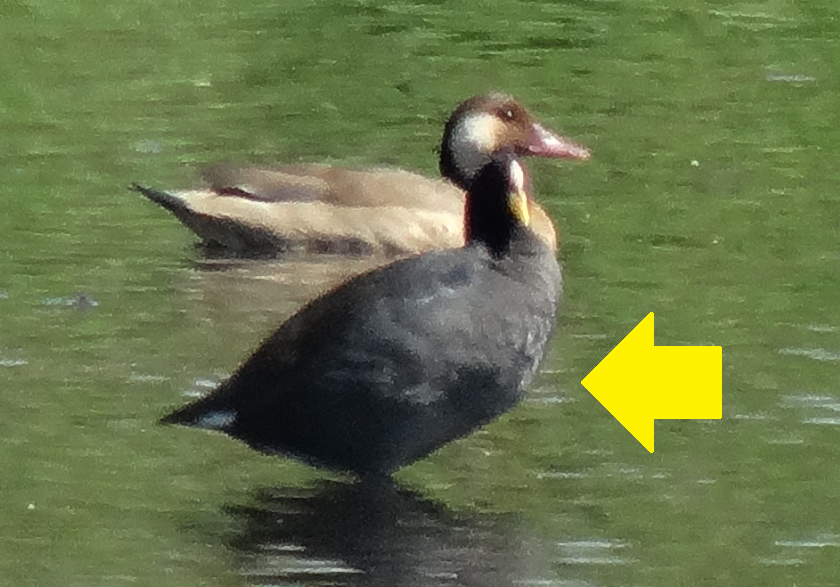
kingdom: Animalia
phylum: Chordata
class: Aves
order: Gruiformes
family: Rallidae
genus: Fulica
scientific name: Fulica armillata
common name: Red-gartered coot
